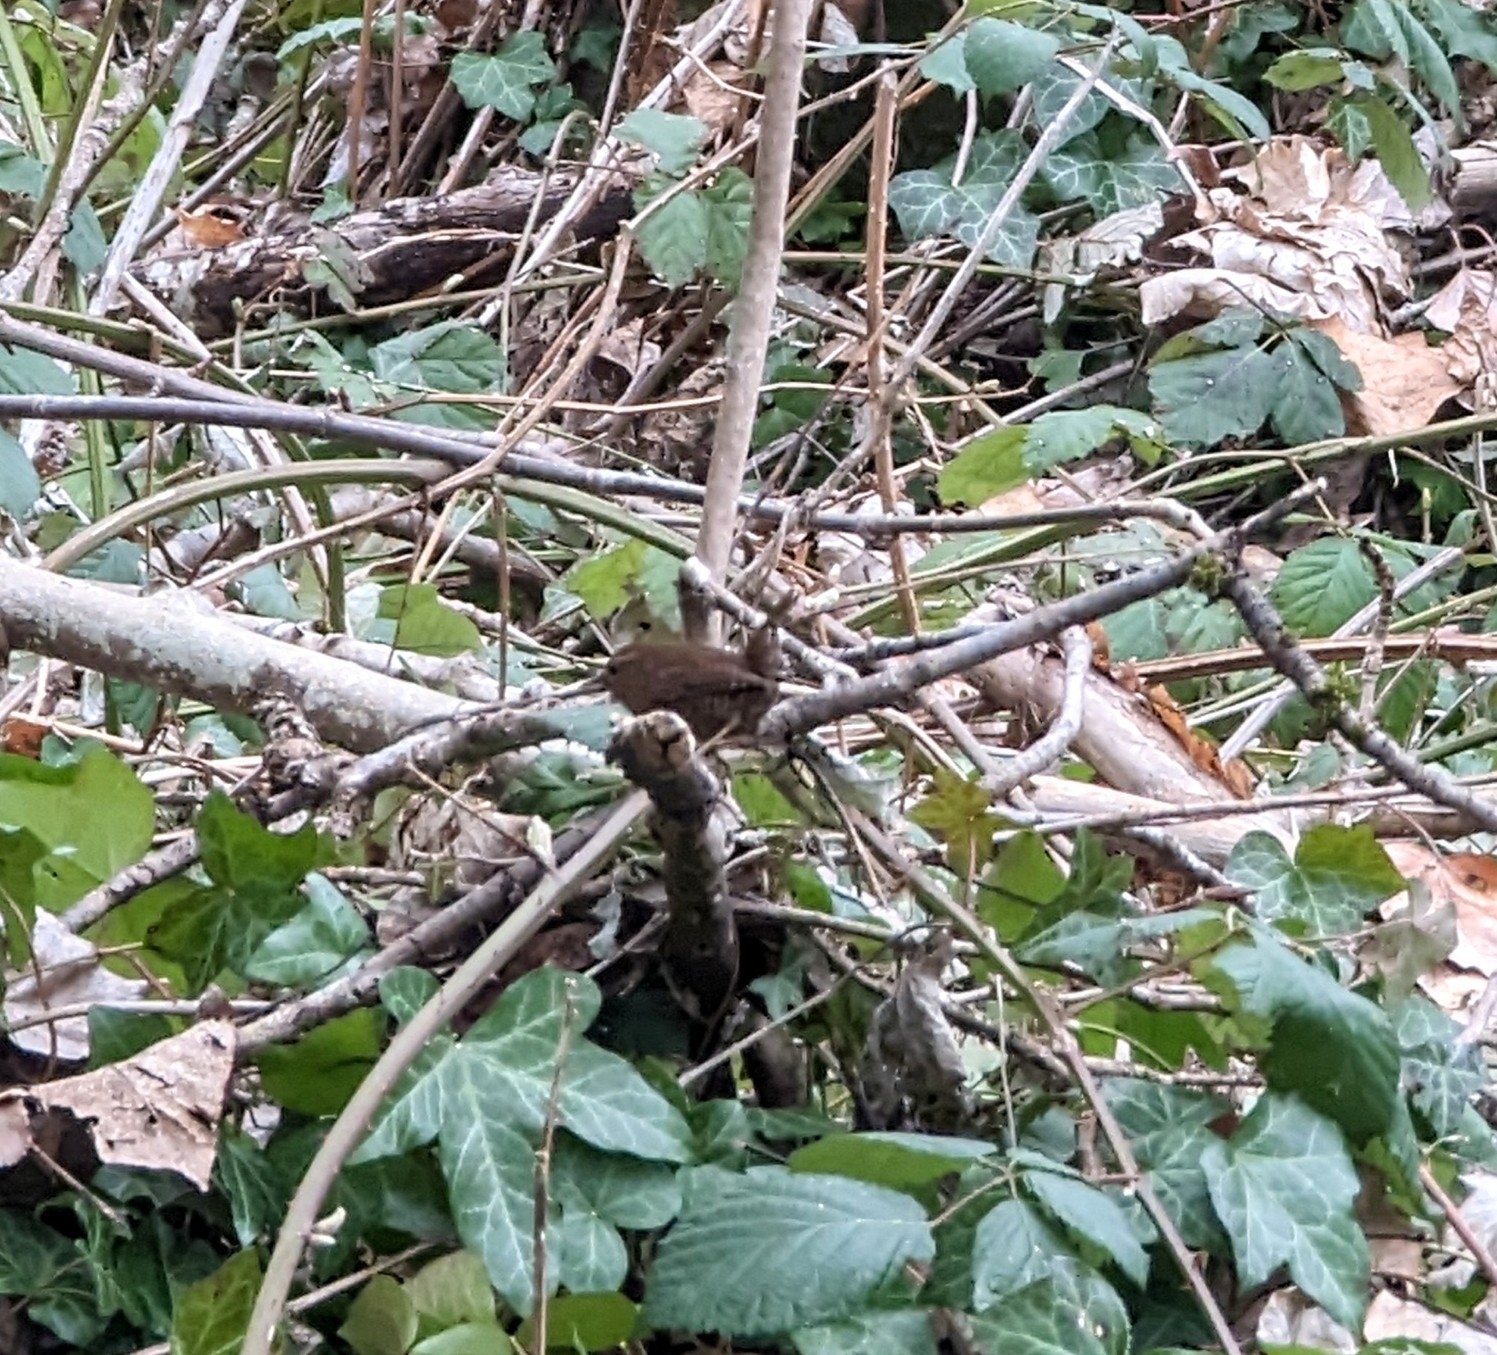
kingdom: Animalia
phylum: Chordata
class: Aves
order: Passeriformes
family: Troglodytidae
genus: Troglodytes
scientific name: Troglodytes pacificus
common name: Pacific wren
